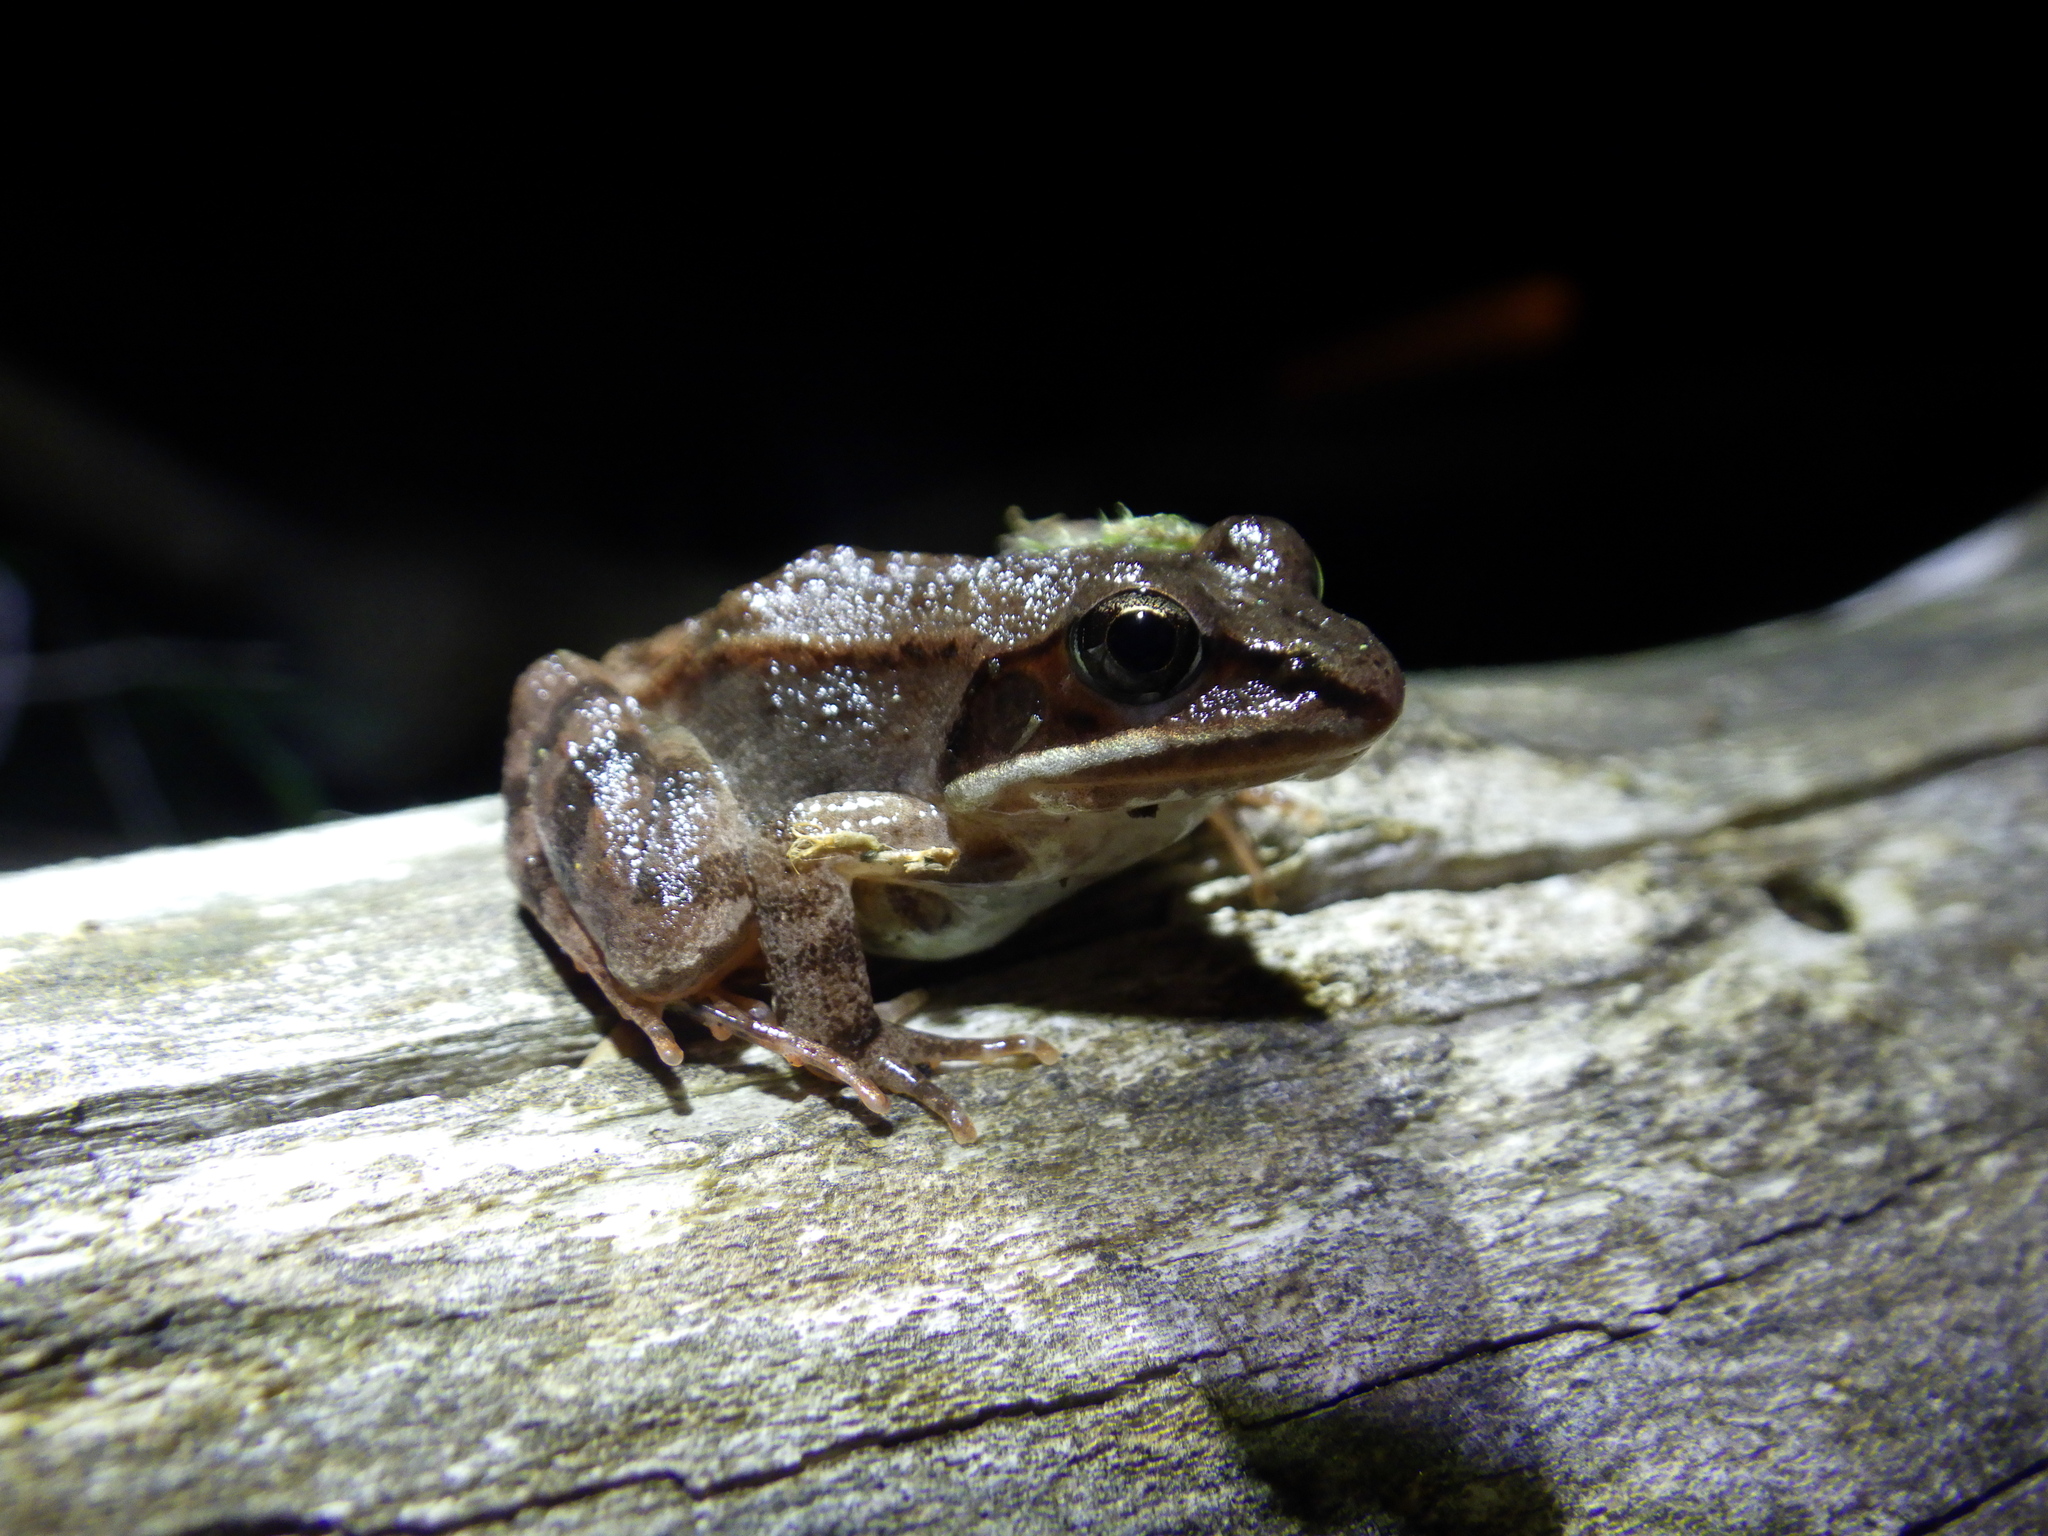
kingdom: Animalia
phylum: Chordata
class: Amphibia
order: Anura
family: Ranidae
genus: Lithobates
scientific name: Lithobates sylvaticus
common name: Wood frog
